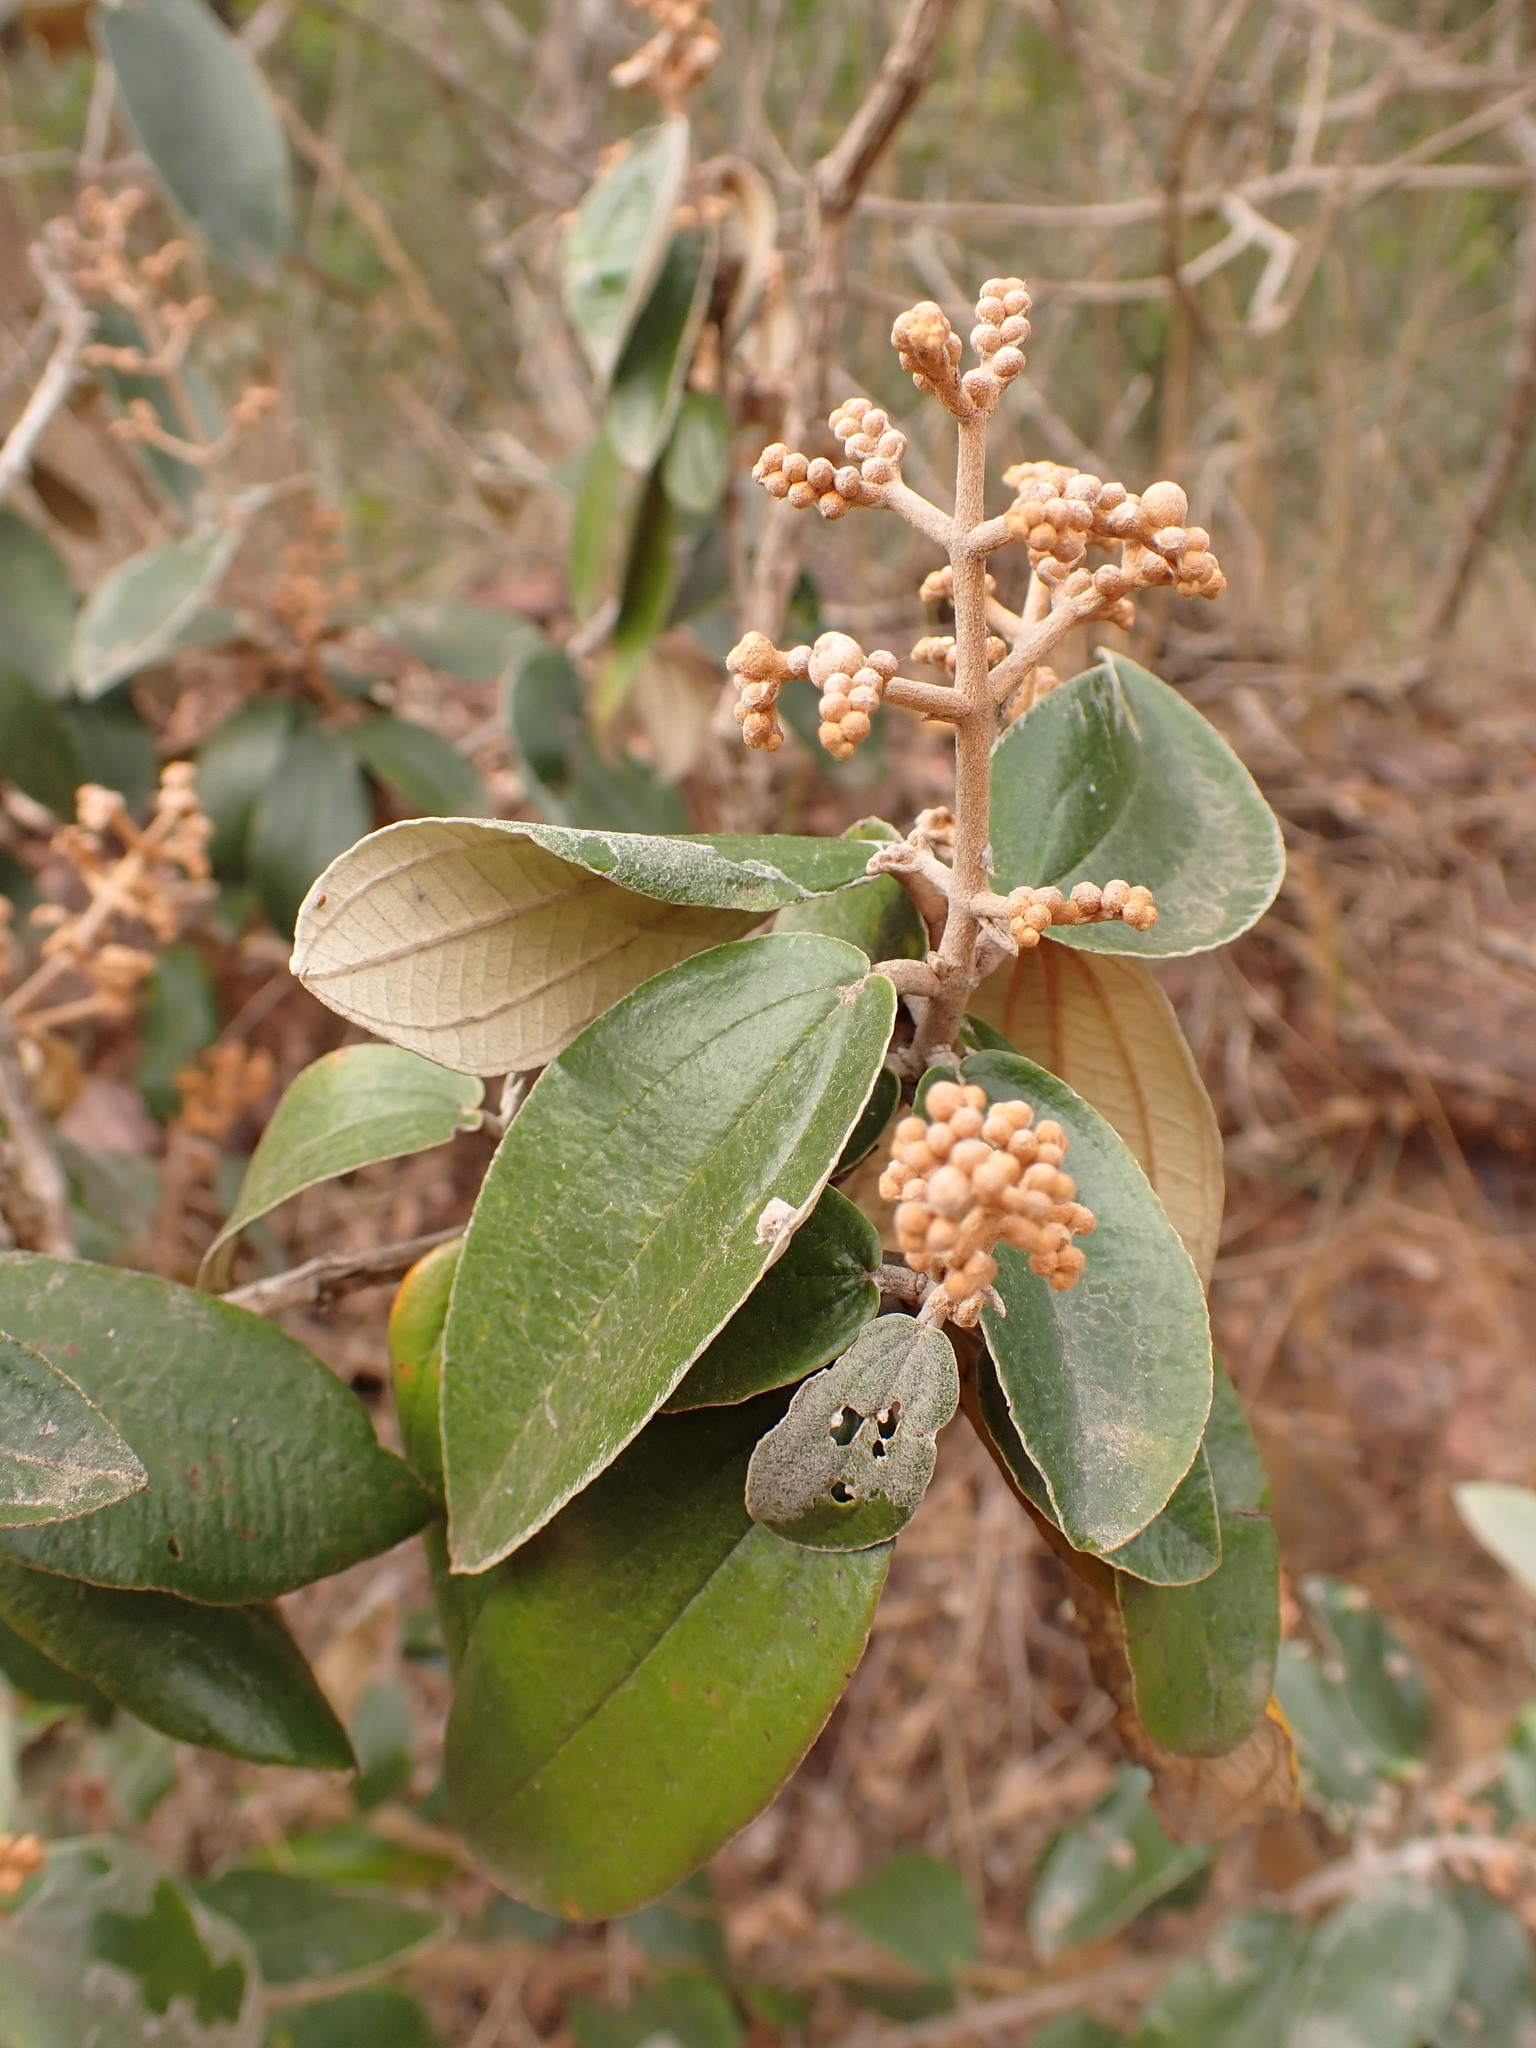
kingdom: Plantae
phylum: Tracheophyta
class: Magnoliopsida
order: Myrtales
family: Melastomataceae
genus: Miconia
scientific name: Miconia albicans
